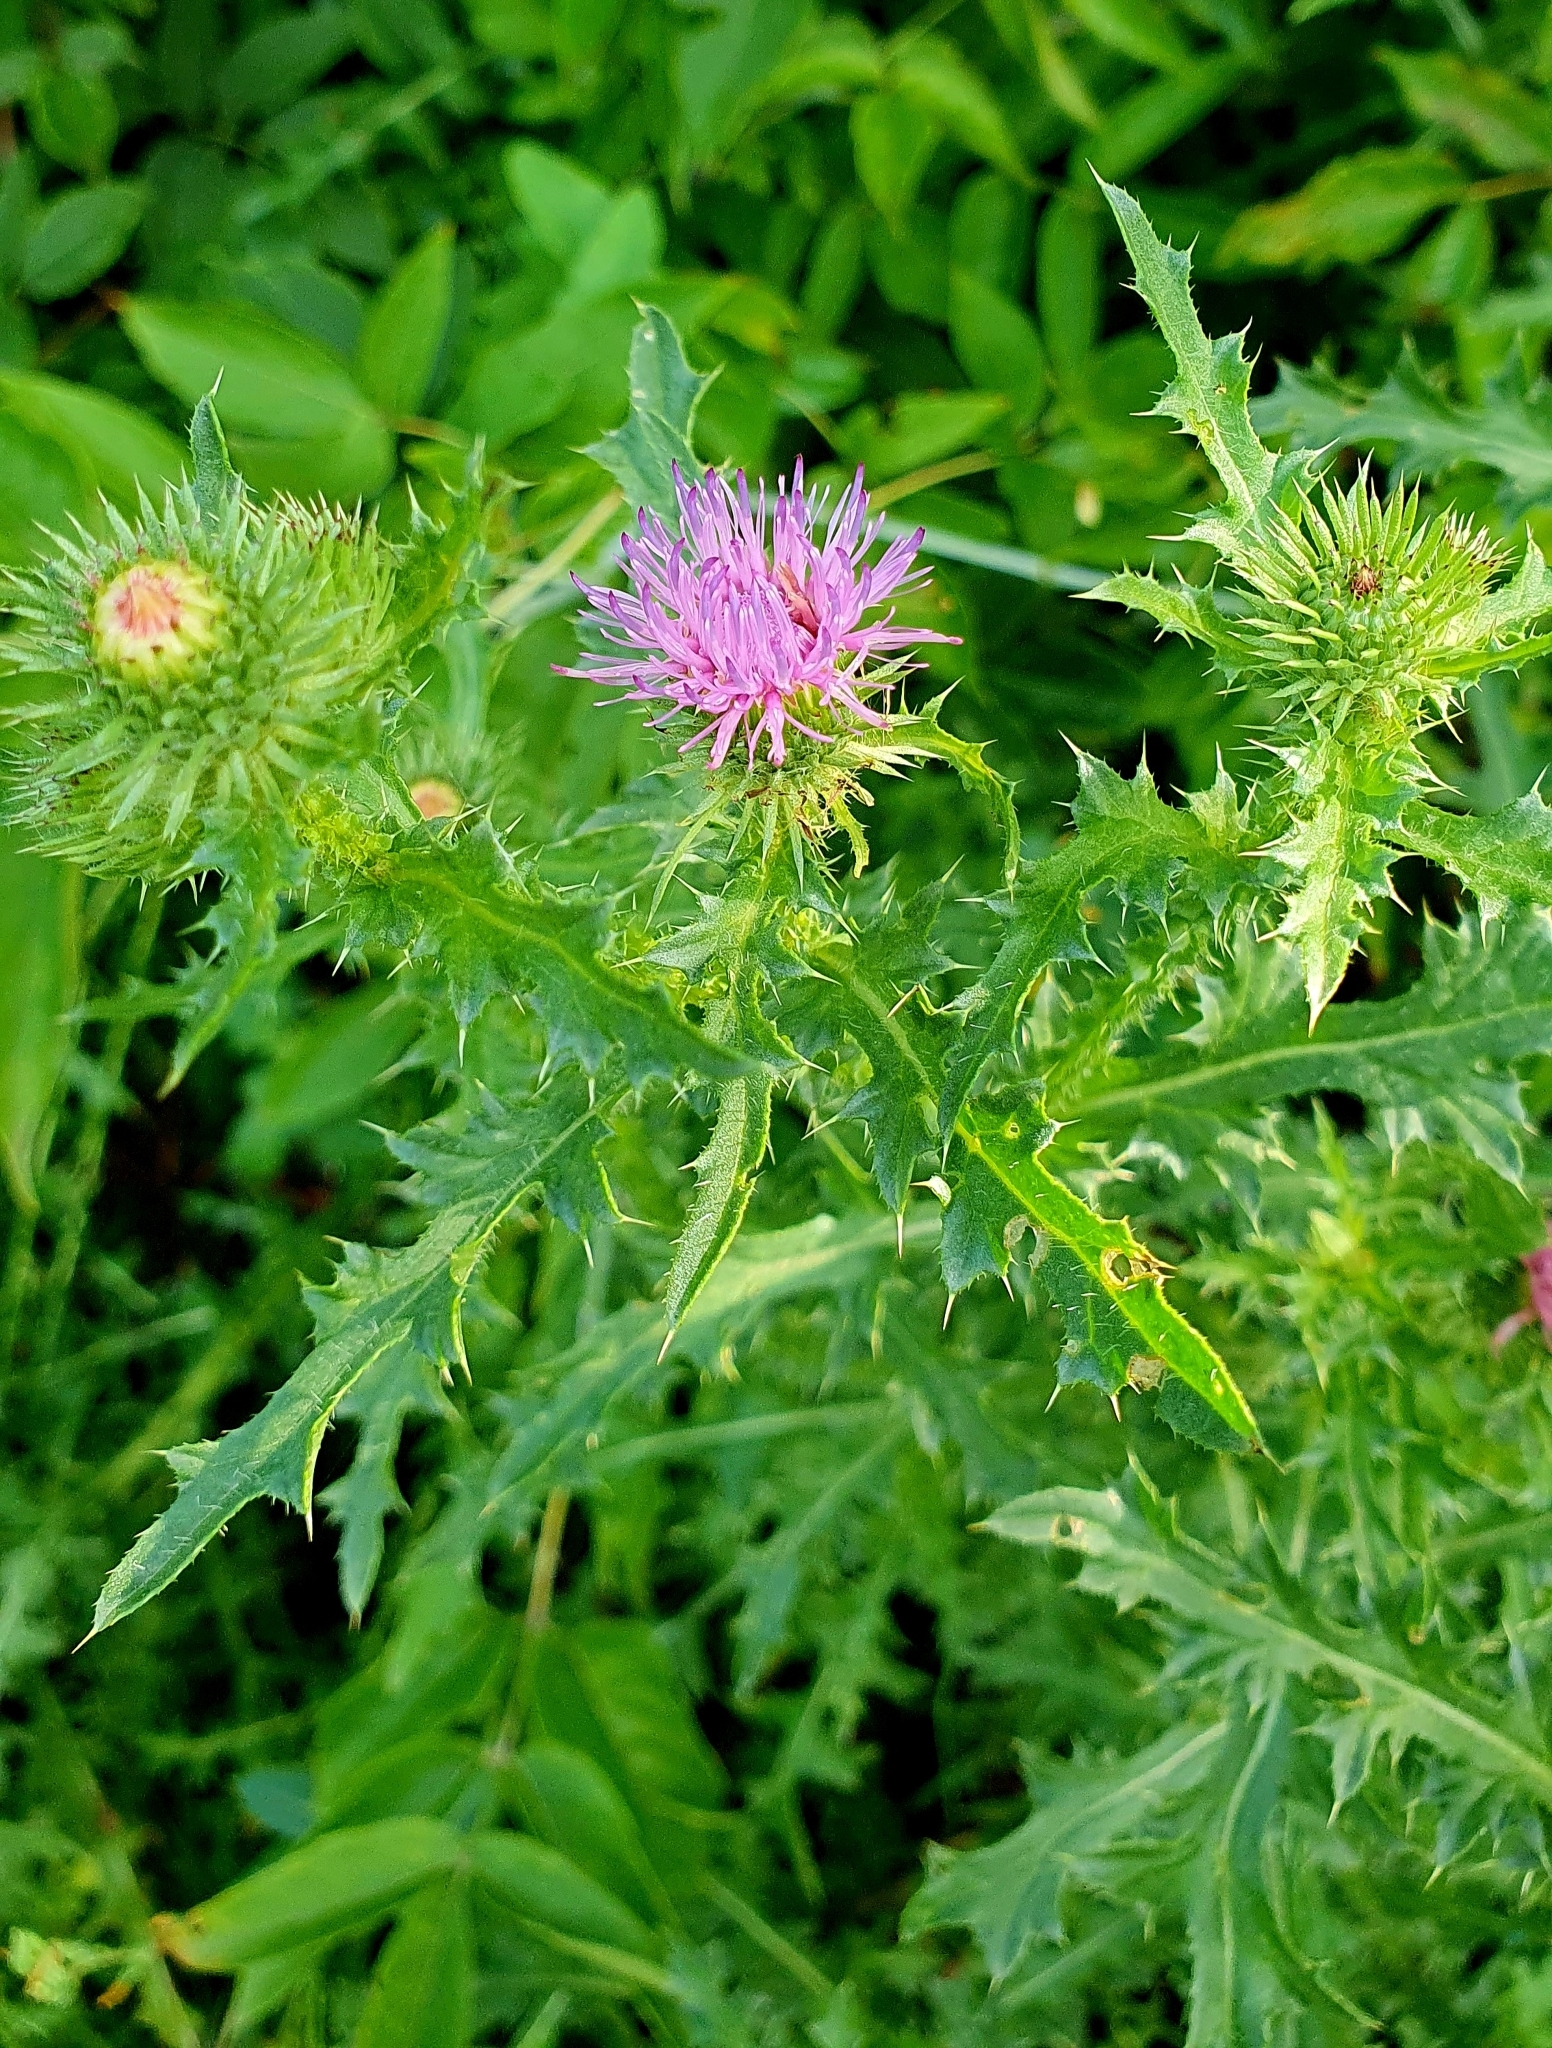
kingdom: Plantae
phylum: Tracheophyta
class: Magnoliopsida
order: Asterales
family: Asteraceae
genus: Carduus
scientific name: Carduus acanthoides
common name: Plumeless thistle
